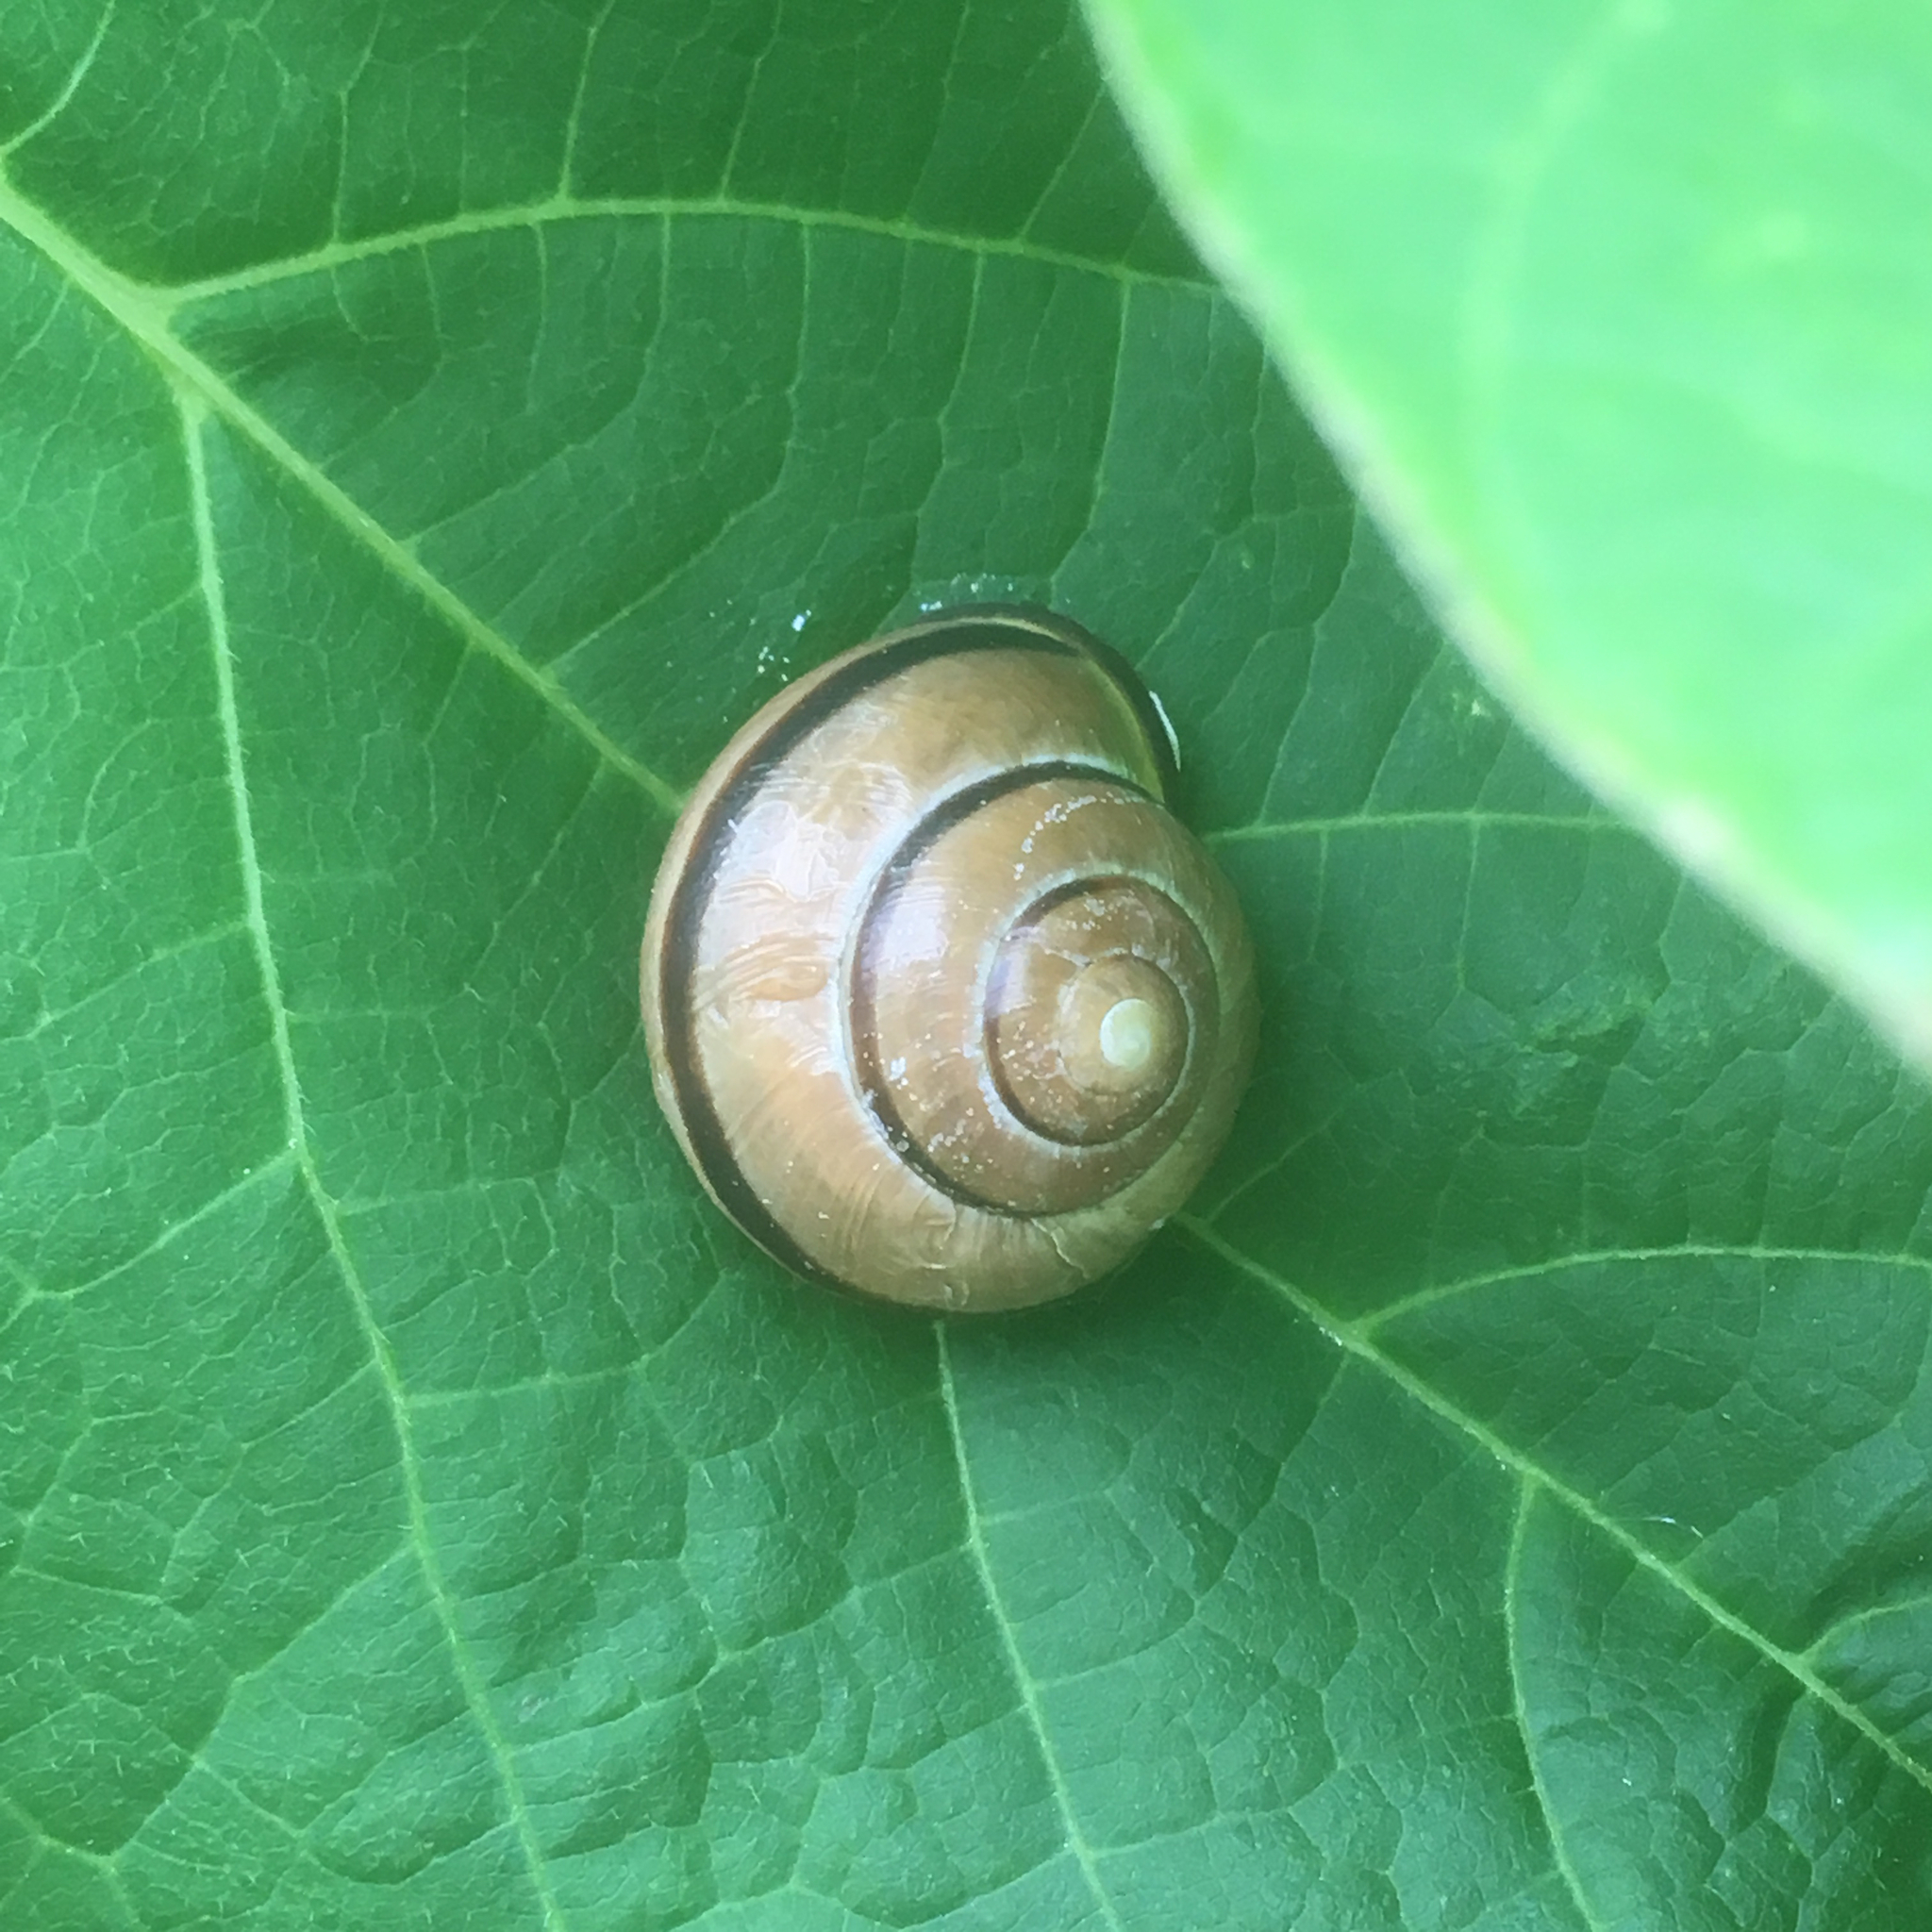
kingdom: Animalia
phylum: Mollusca
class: Gastropoda
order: Stylommatophora
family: Helicidae
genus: Cepaea
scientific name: Cepaea nemoralis
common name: Grovesnail
